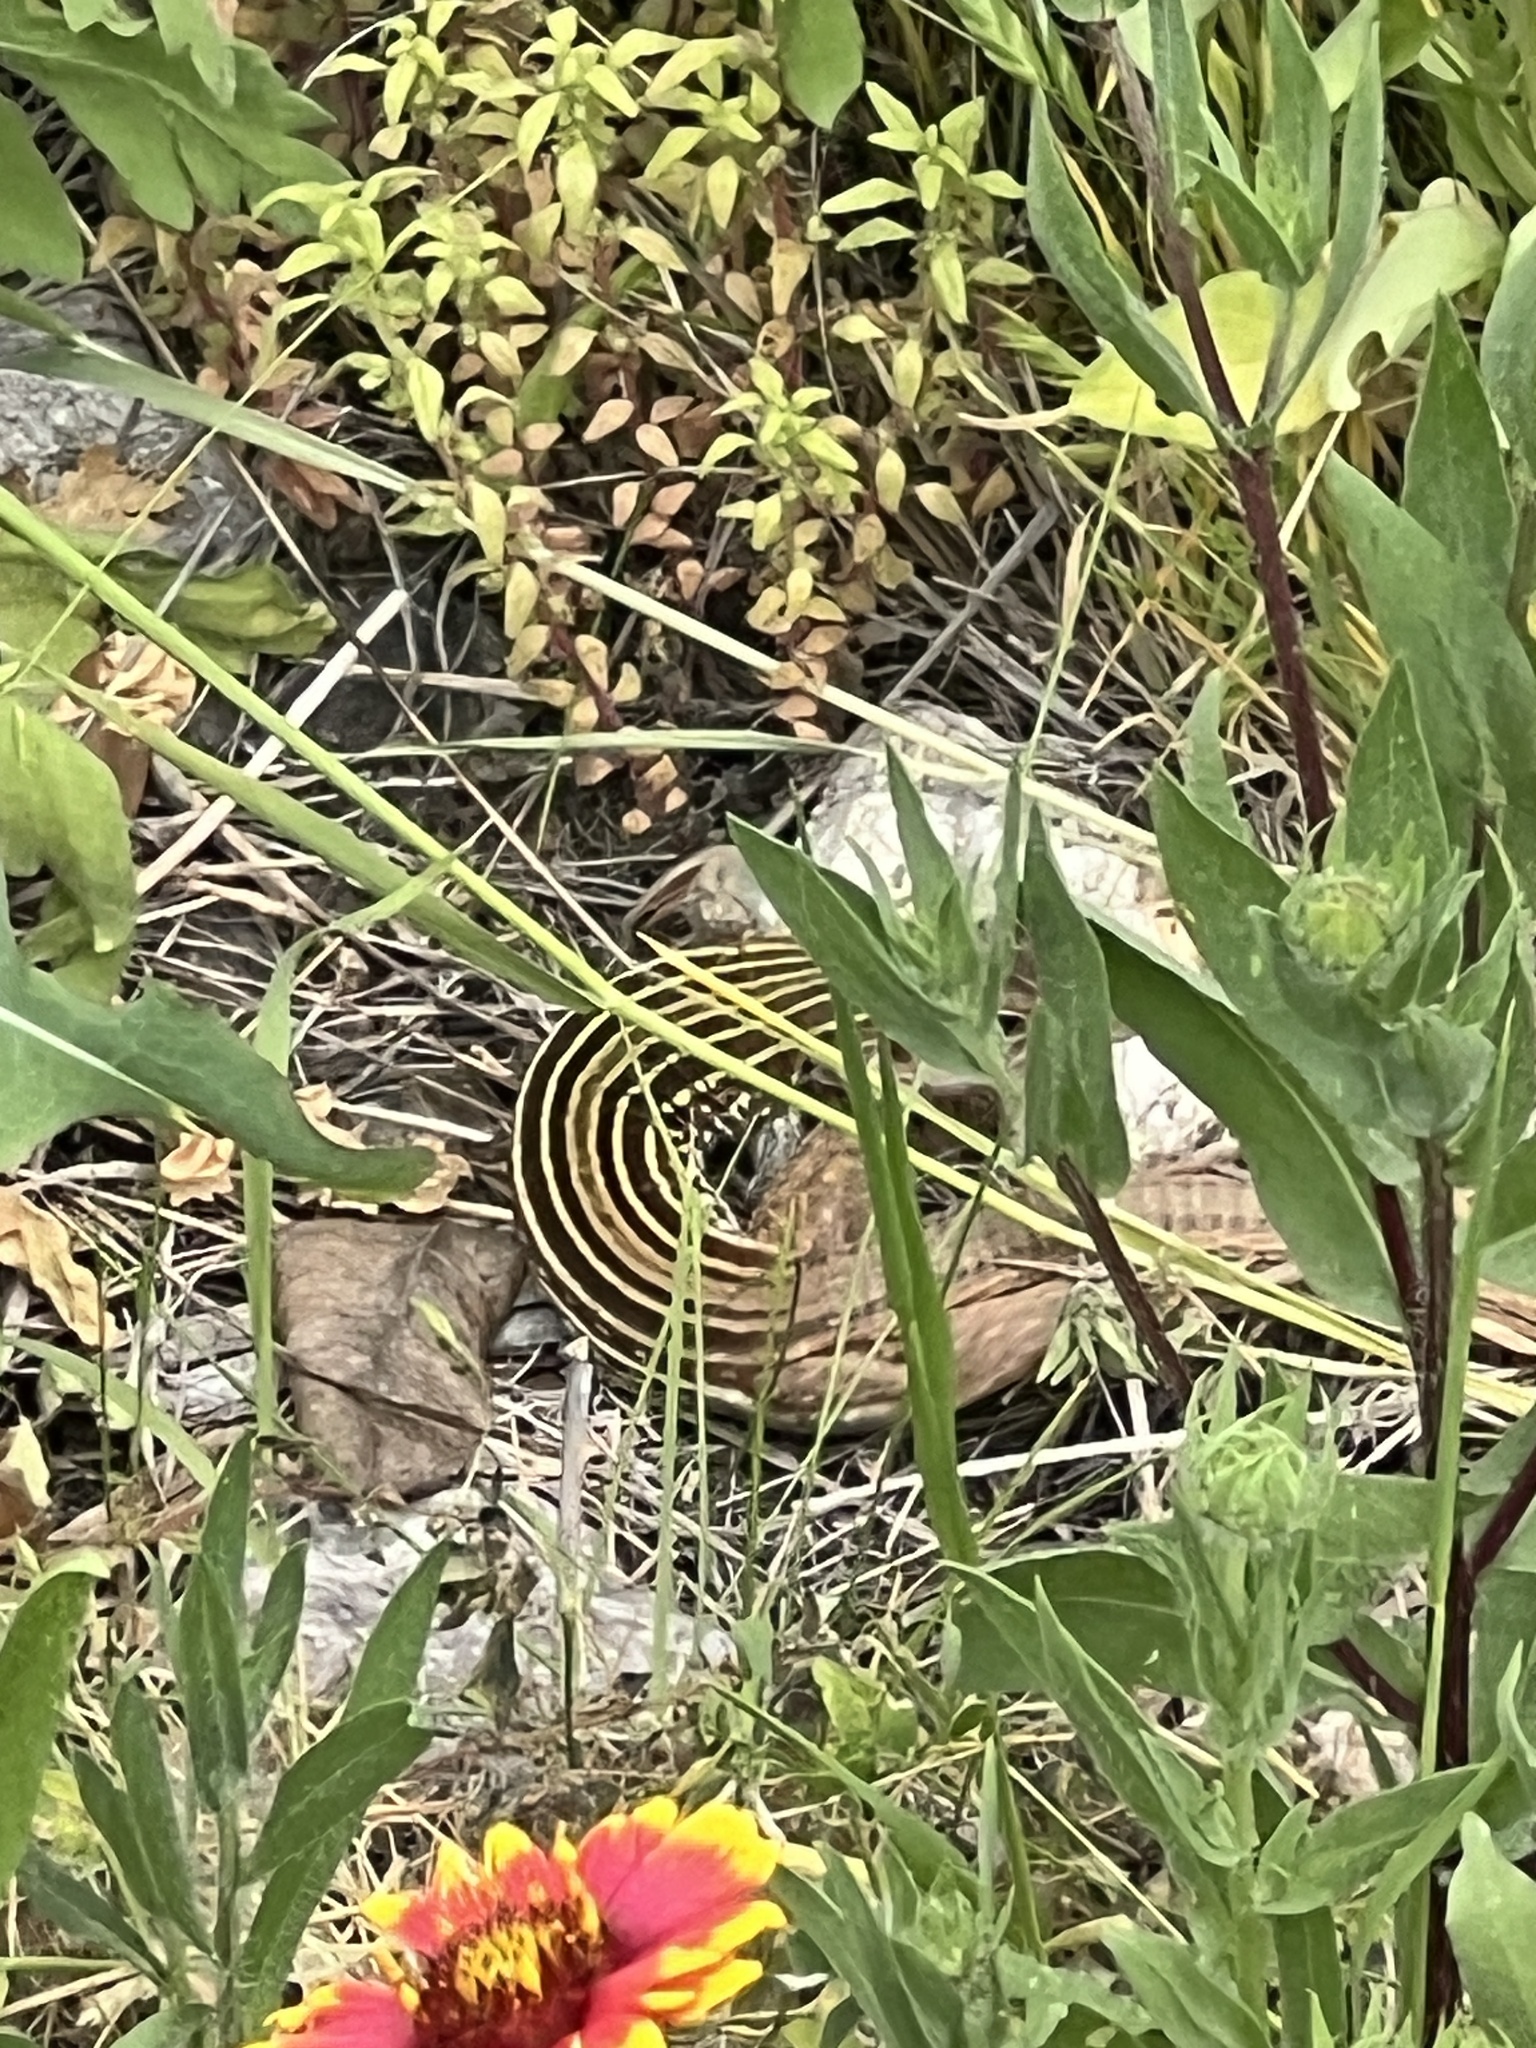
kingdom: Animalia
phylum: Chordata
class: Squamata
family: Teiidae
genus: Aspidoscelis
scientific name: Aspidoscelis gularis
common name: Eastern spotted whiptail
